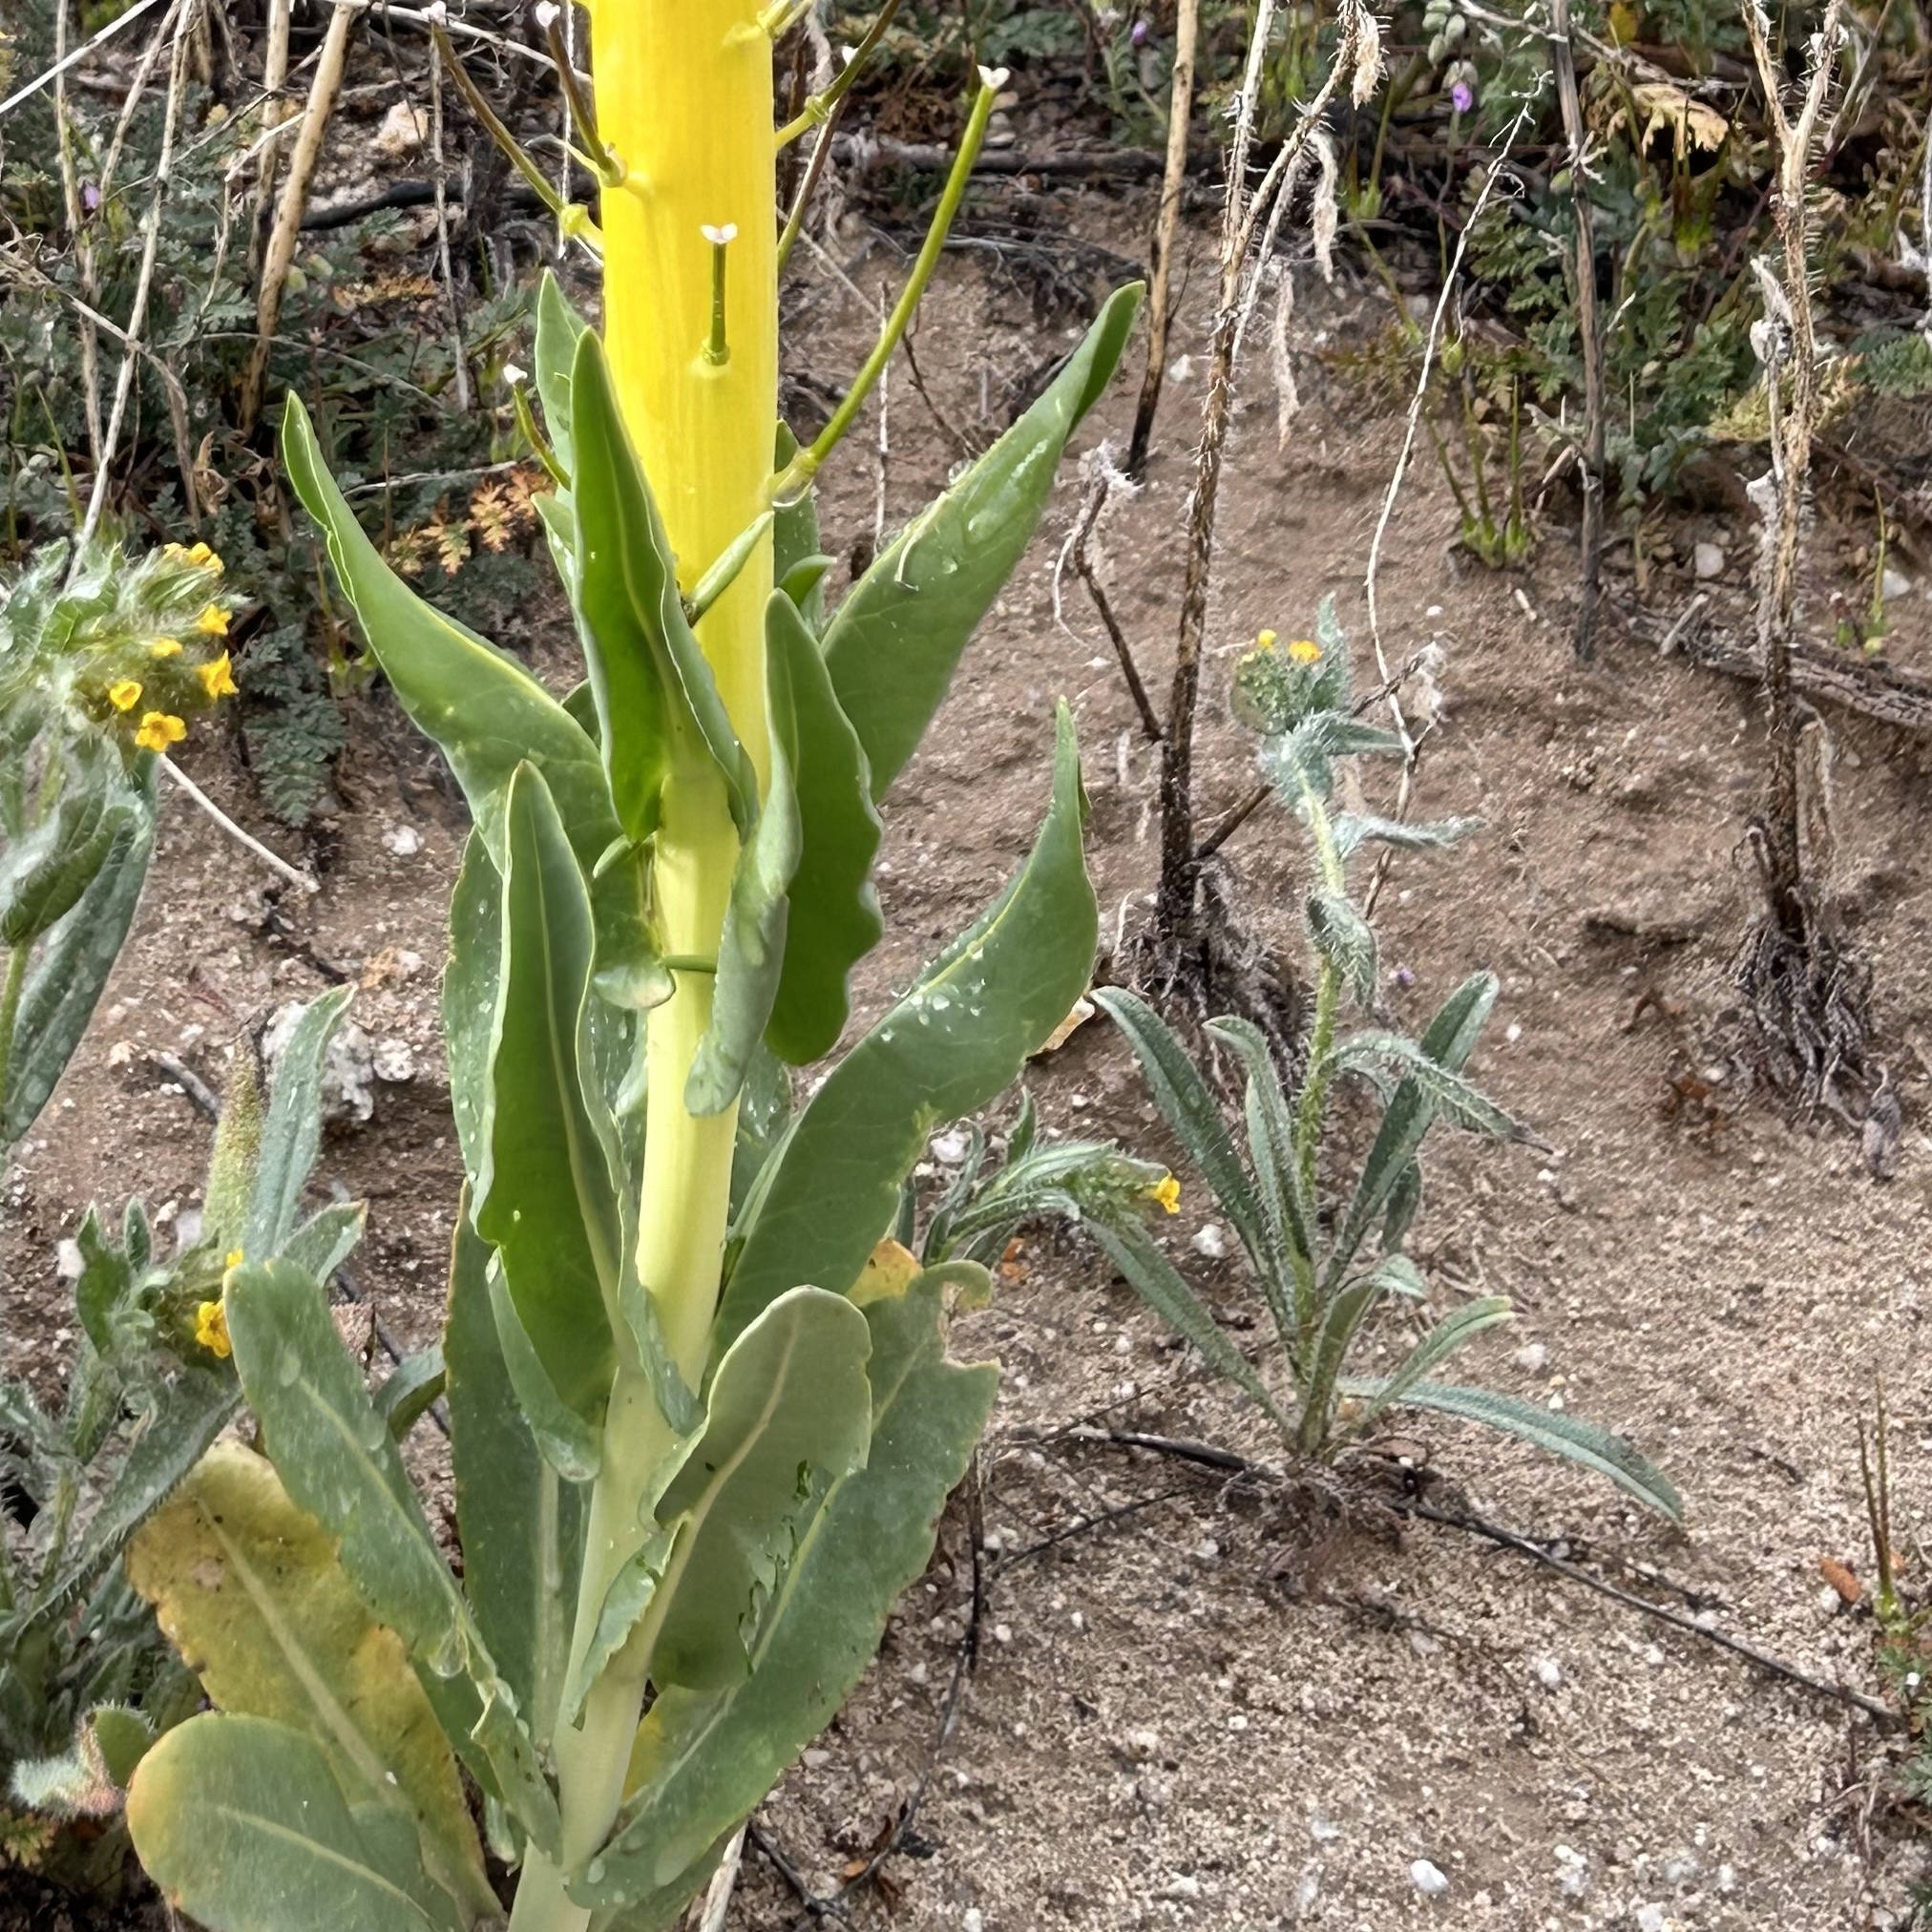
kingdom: Plantae
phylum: Tracheophyta
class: Magnoliopsida
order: Brassicales
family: Brassicaceae
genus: Streptanthus
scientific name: Streptanthus inflatus
